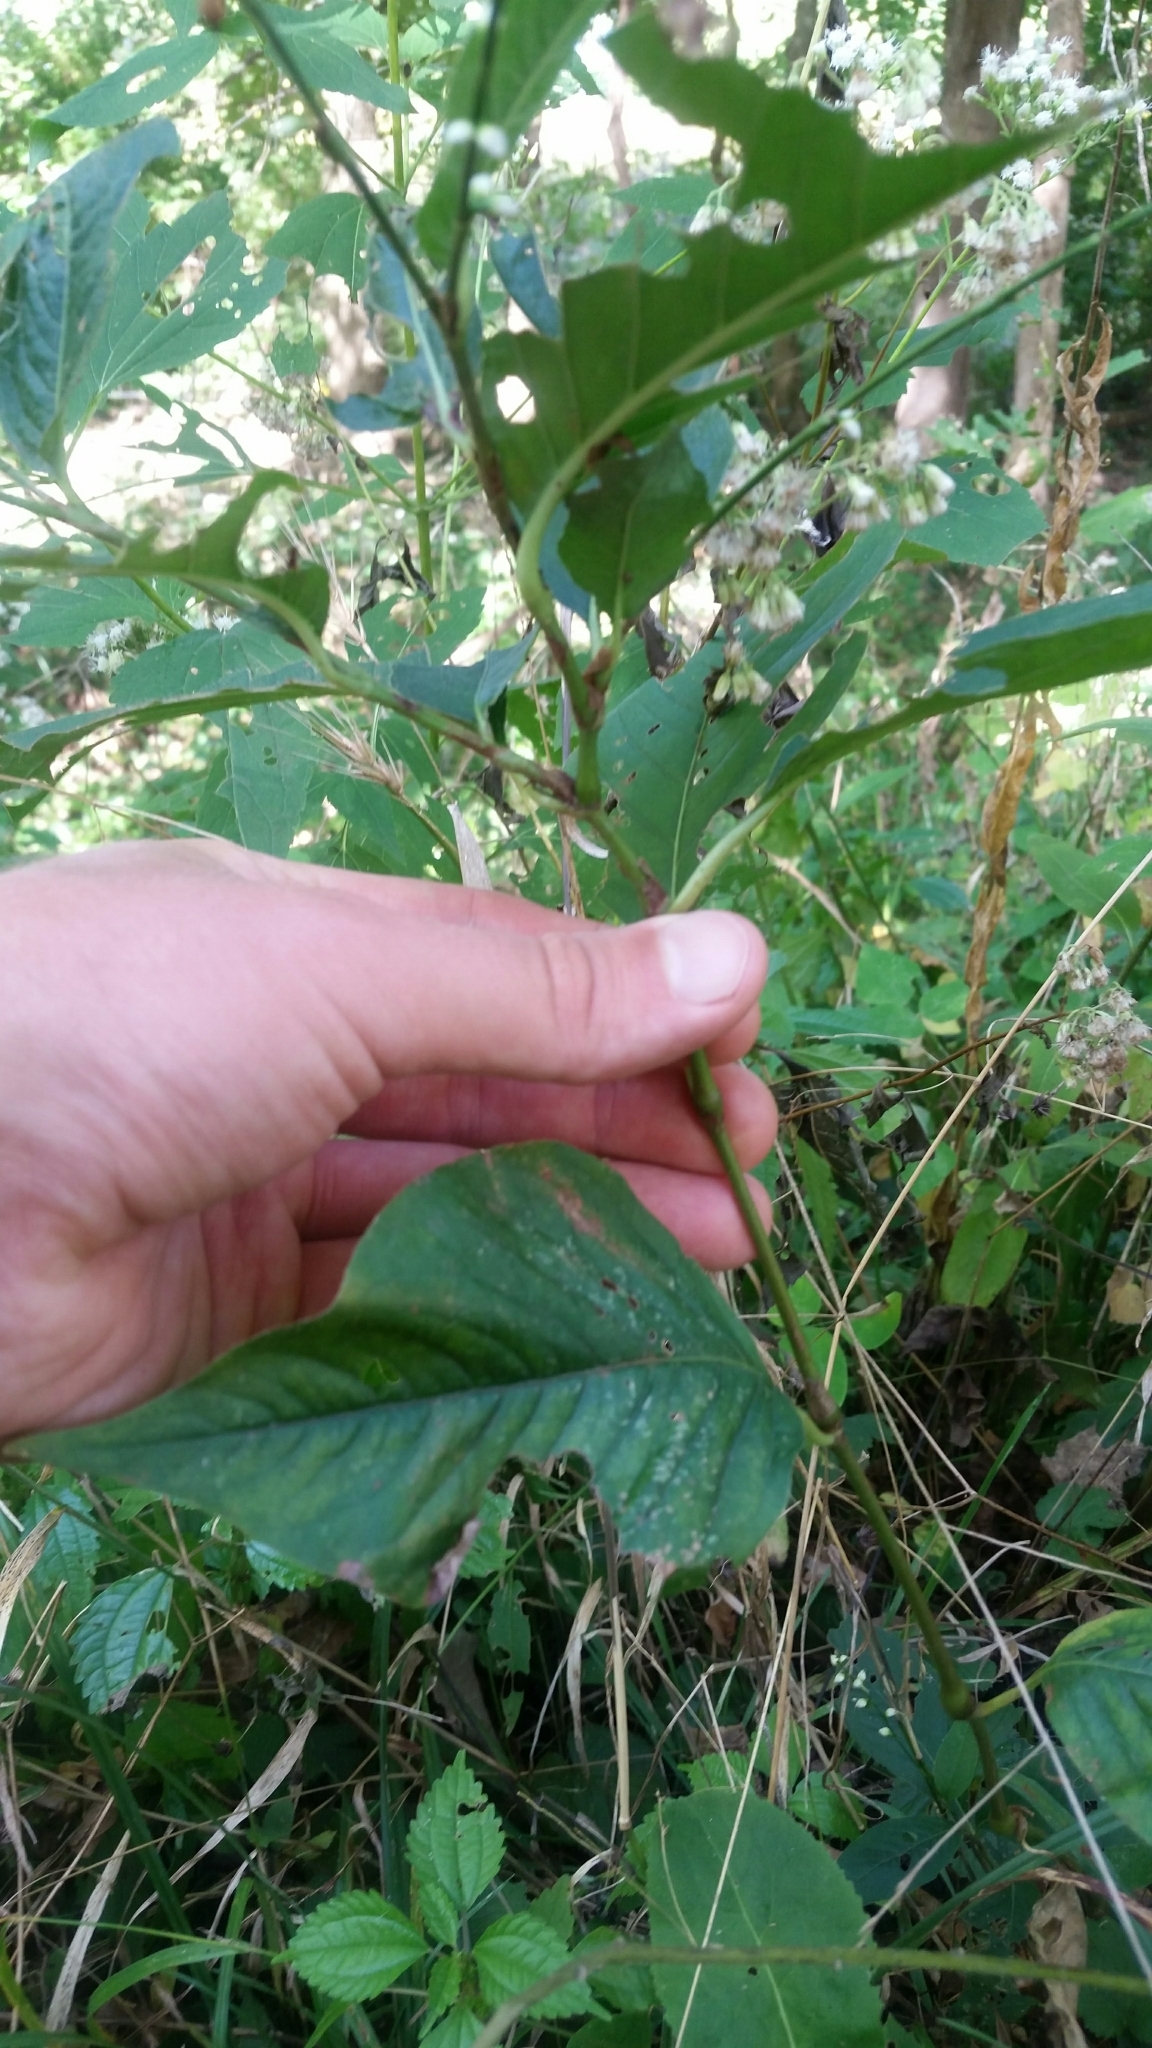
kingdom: Plantae
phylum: Tracheophyta
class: Magnoliopsida
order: Caryophyllales
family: Polygonaceae
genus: Persicaria
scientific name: Persicaria virginiana
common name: Jumpseed
